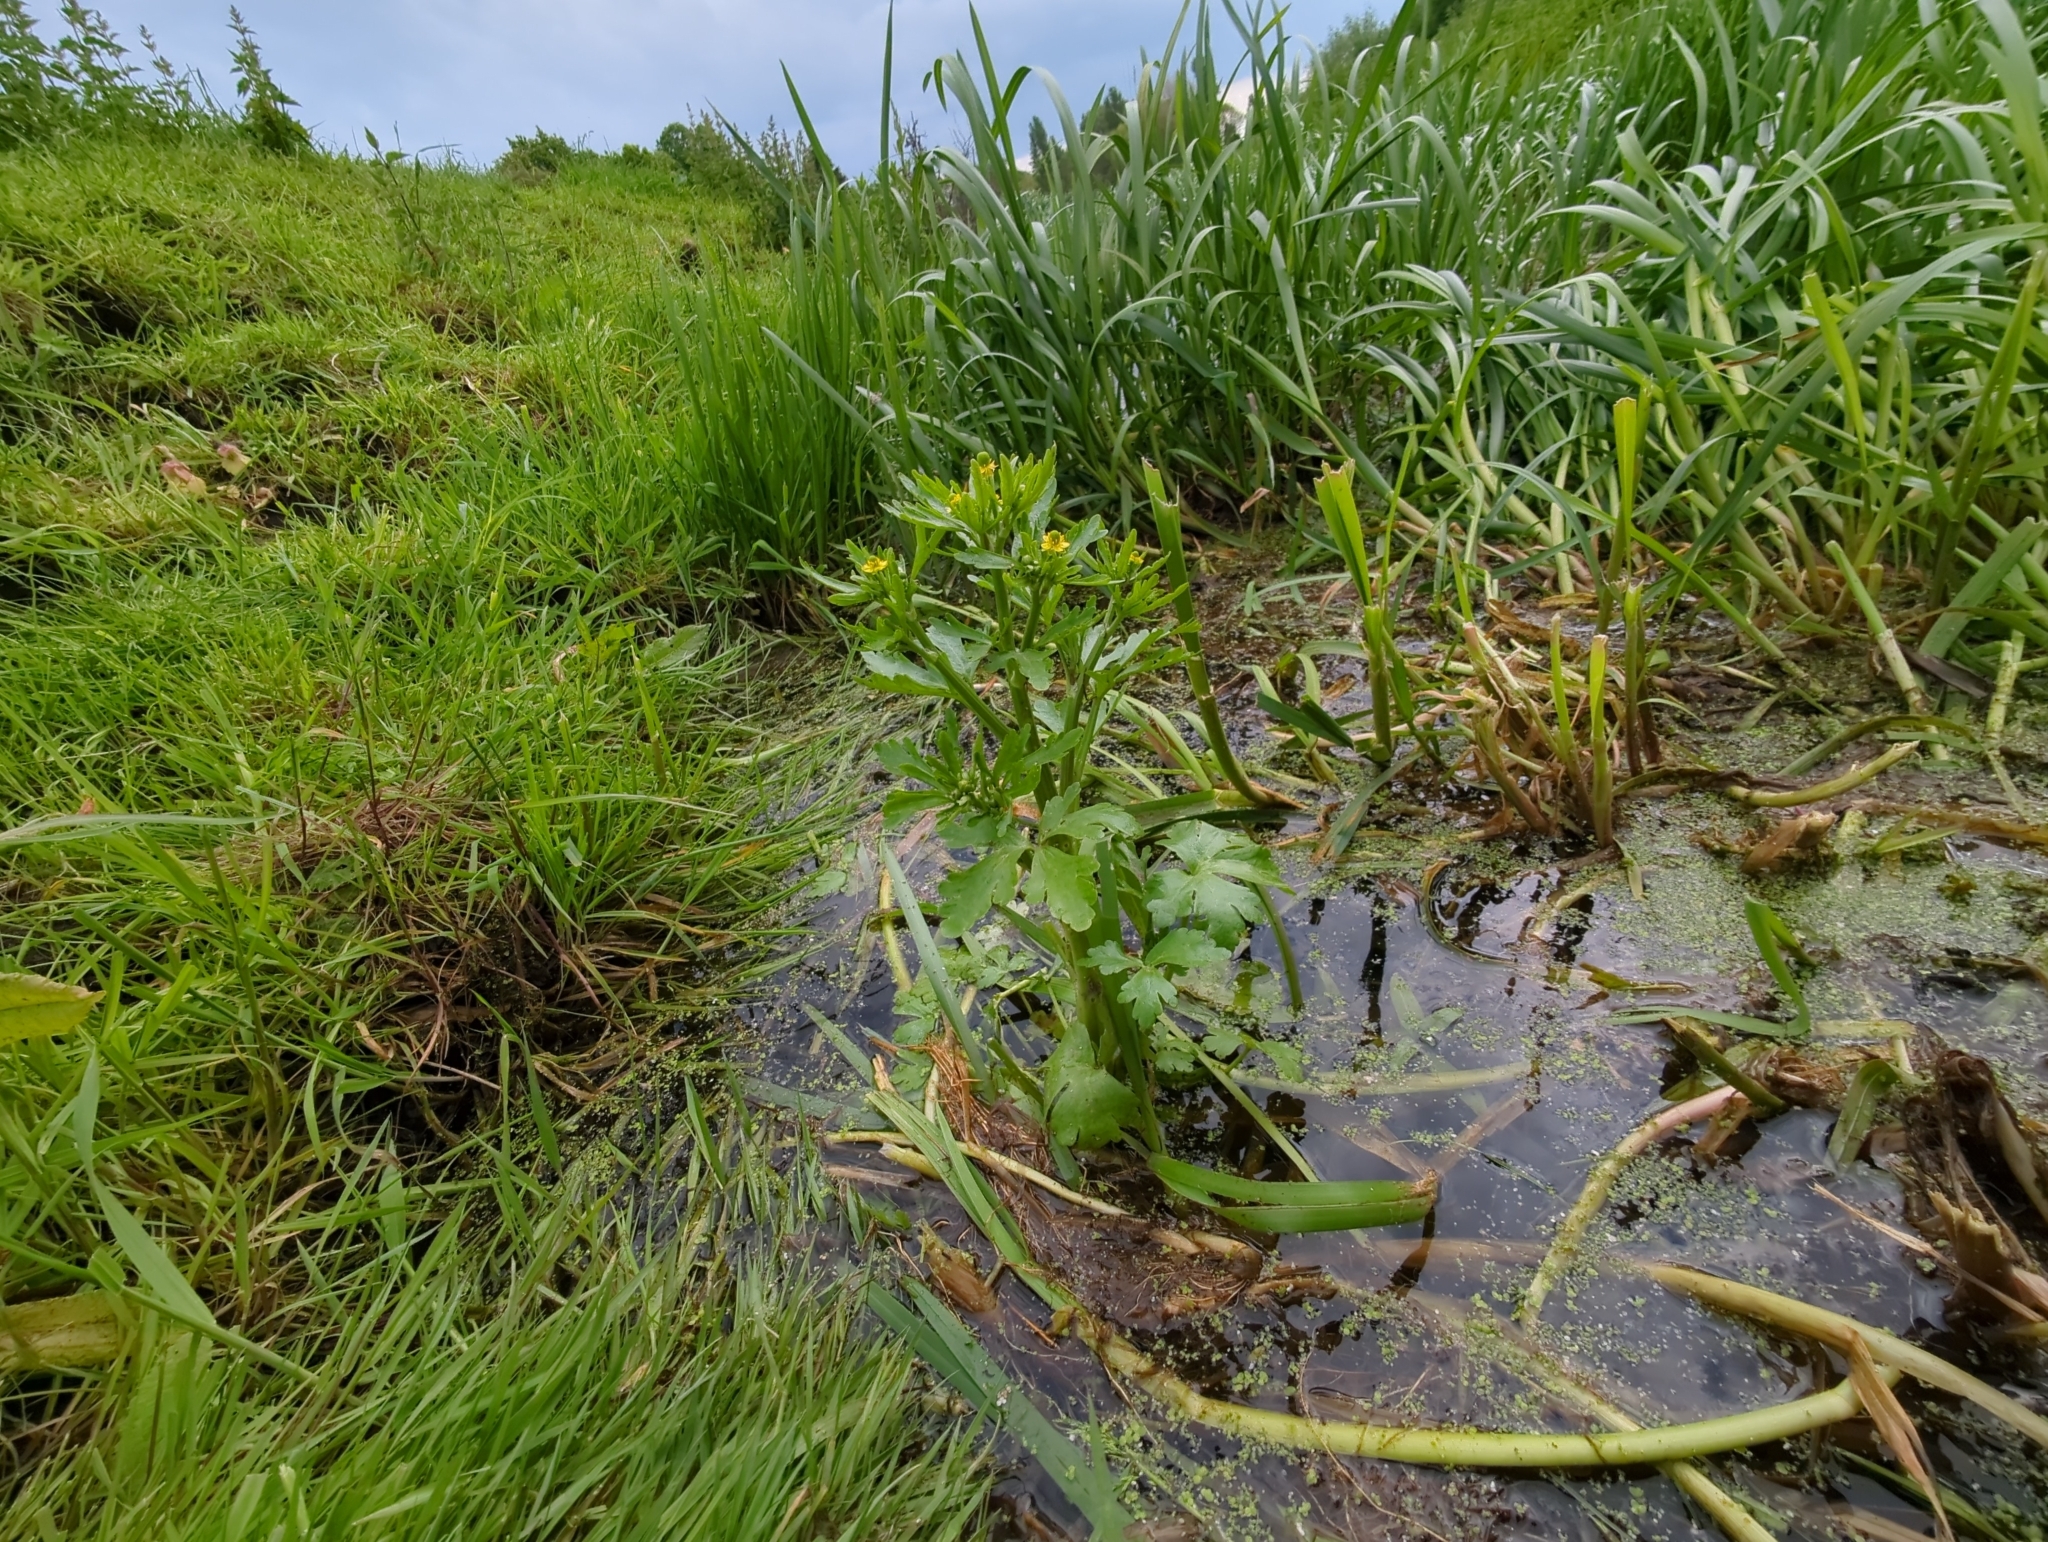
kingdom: Plantae
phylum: Tracheophyta
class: Magnoliopsida
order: Ranunculales
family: Ranunculaceae
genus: Ranunculus
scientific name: Ranunculus sceleratus
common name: Celery-leaved buttercup
